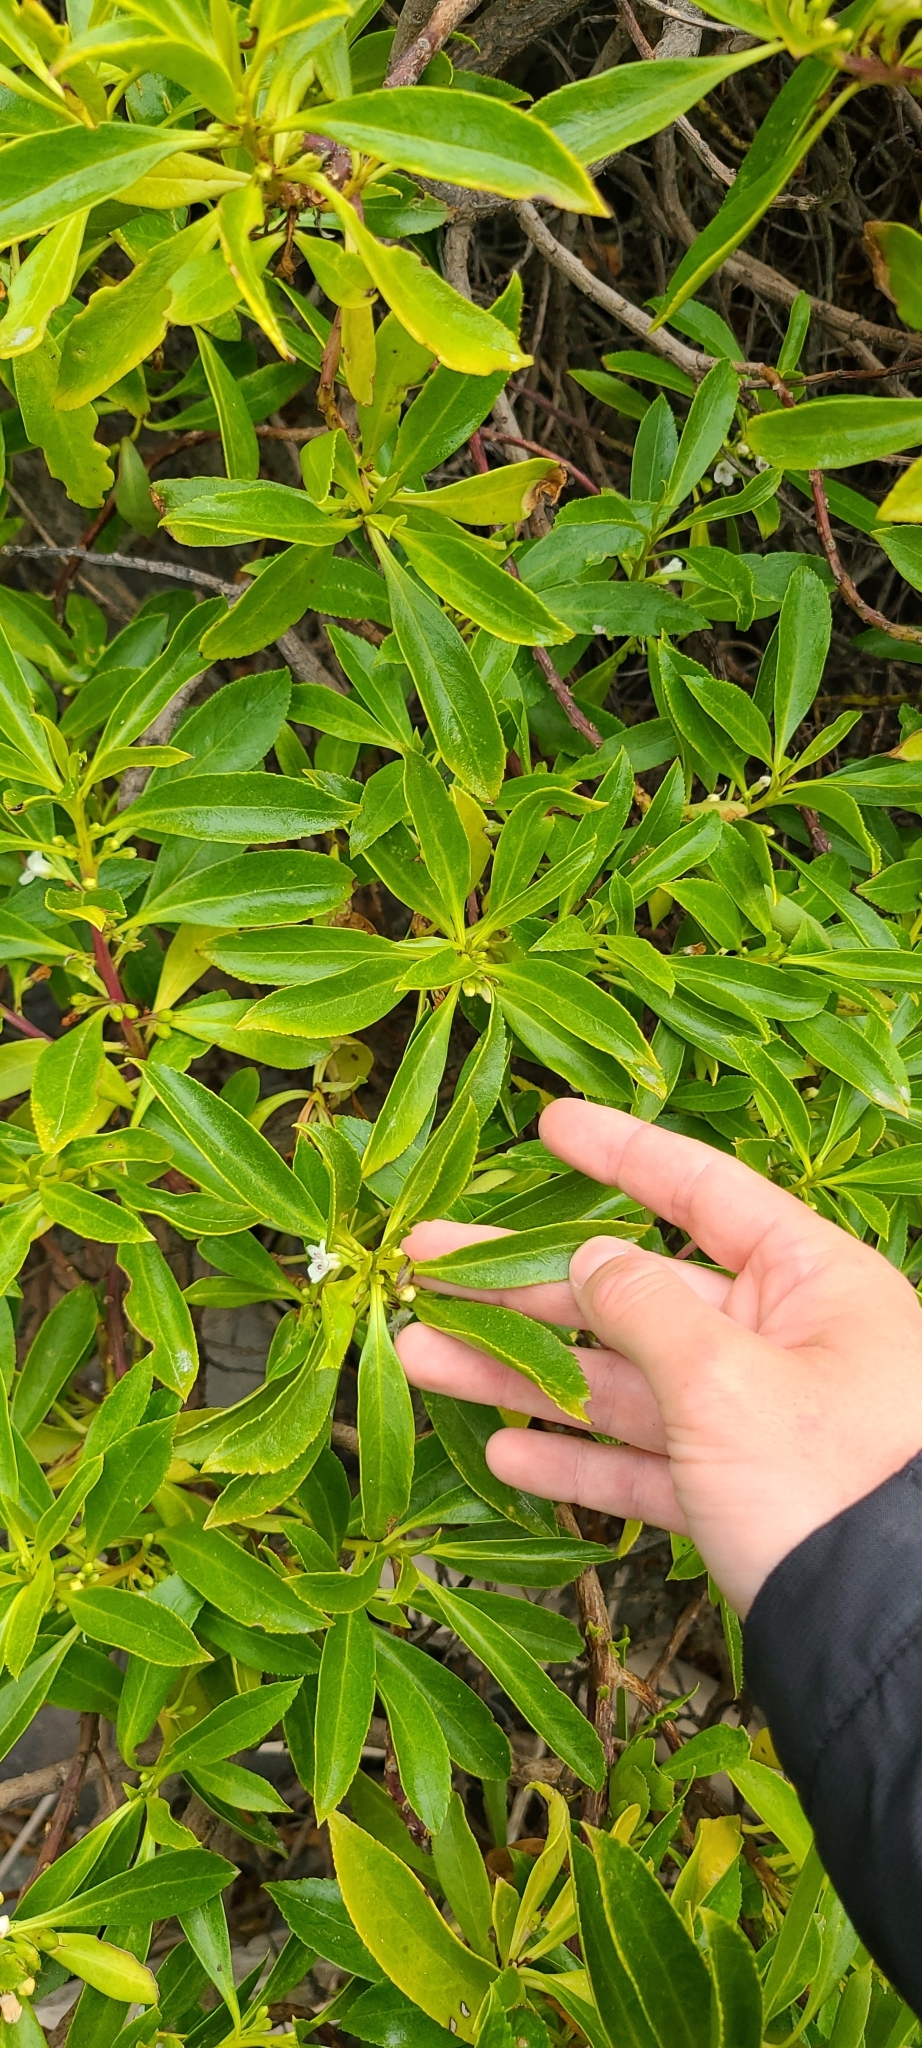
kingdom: Plantae
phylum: Tracheophyta
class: Magnoliopsida
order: Lamiales
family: Scrophulariaceae
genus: Myoporum
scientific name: Myoporum insulare
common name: Common boobialla
